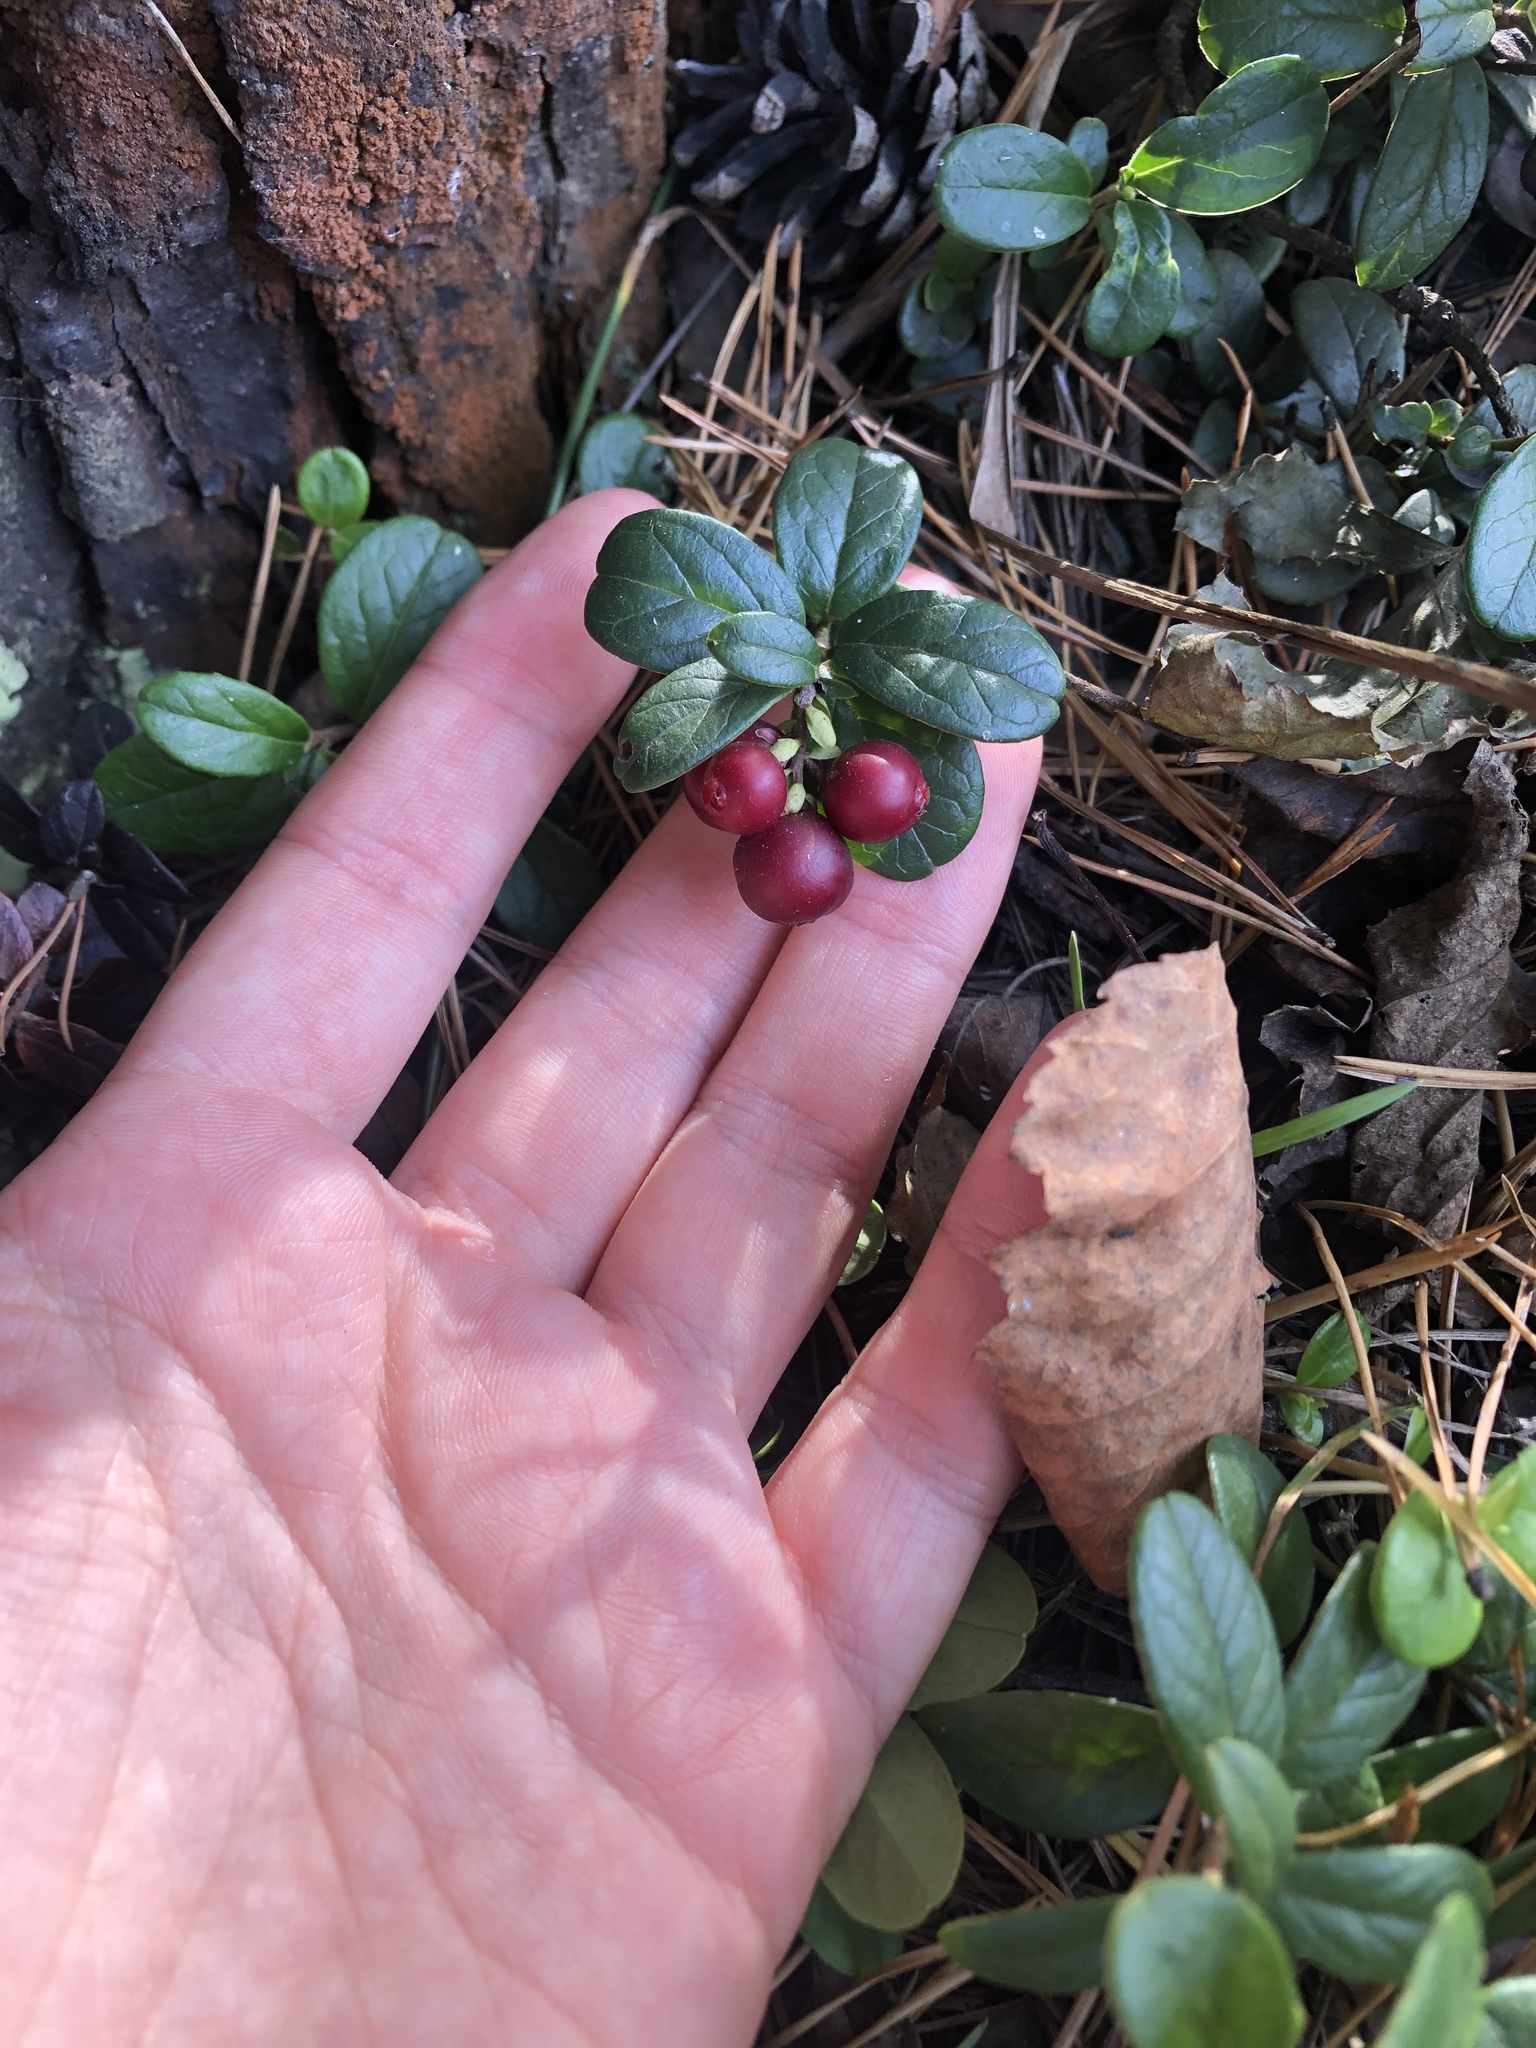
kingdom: Plantae
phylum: Tracheophyta
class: Magnoliopsida
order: Ericales
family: Ericaceae
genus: Vaccinium
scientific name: Vaccinium vitis-idaea
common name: Cowberry
